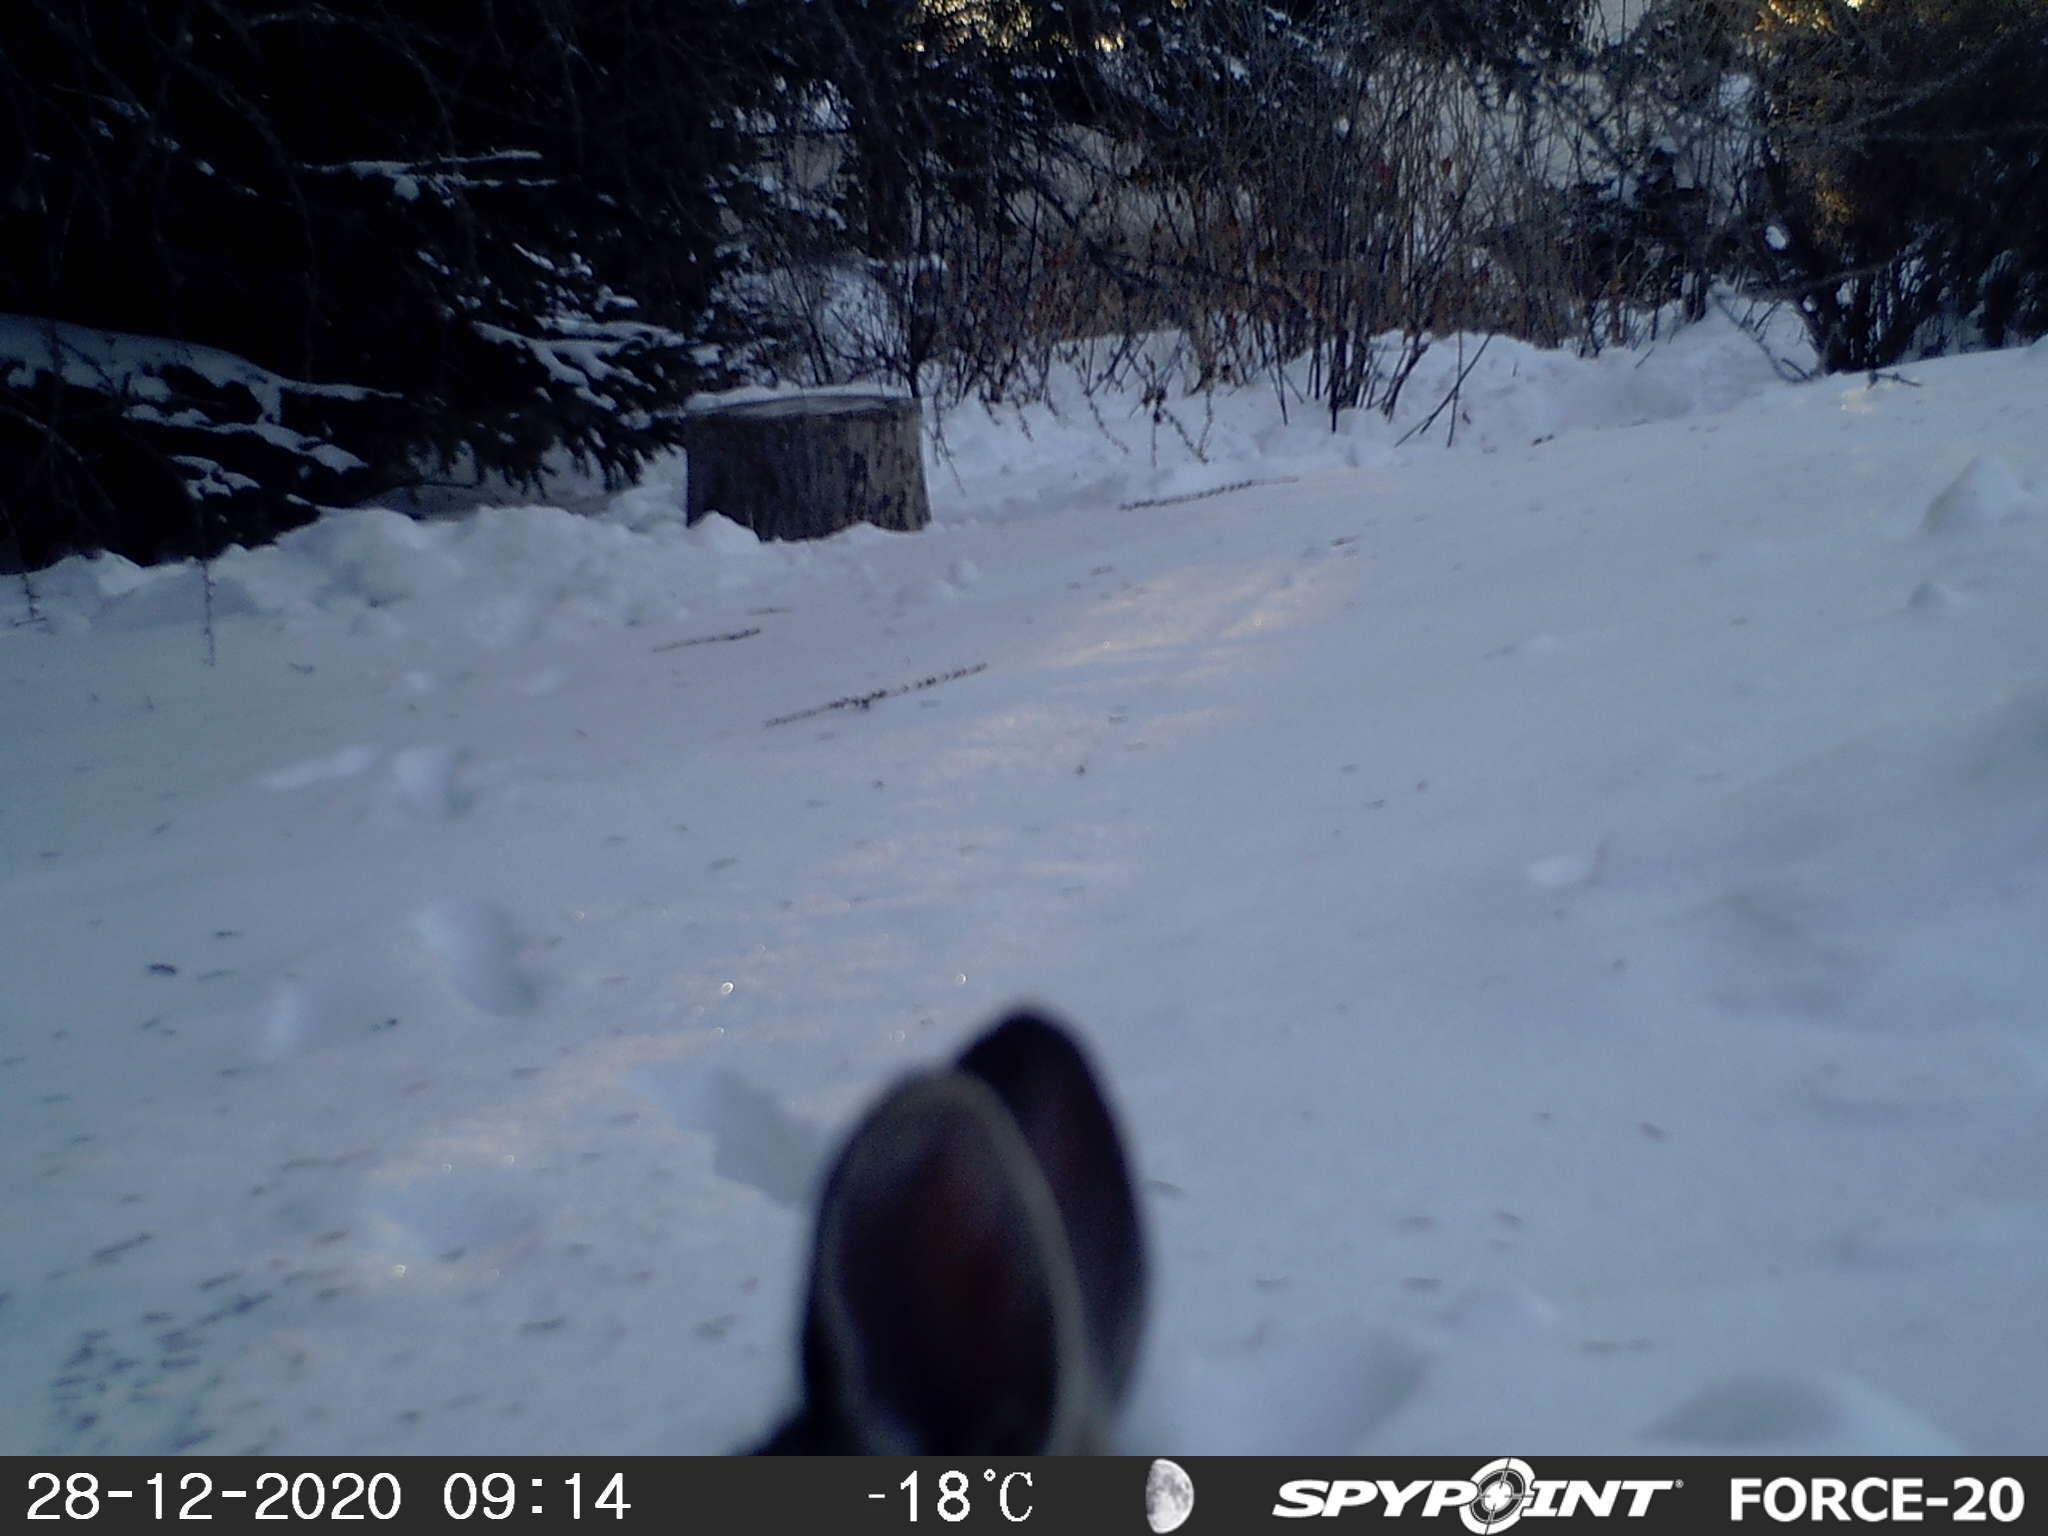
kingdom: Animalia
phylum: Chordata
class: Mammalia
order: Lagomorpha
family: Leporidae
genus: Sylvilagus
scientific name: Sylvilagus floridanus
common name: Eastern cottontail
